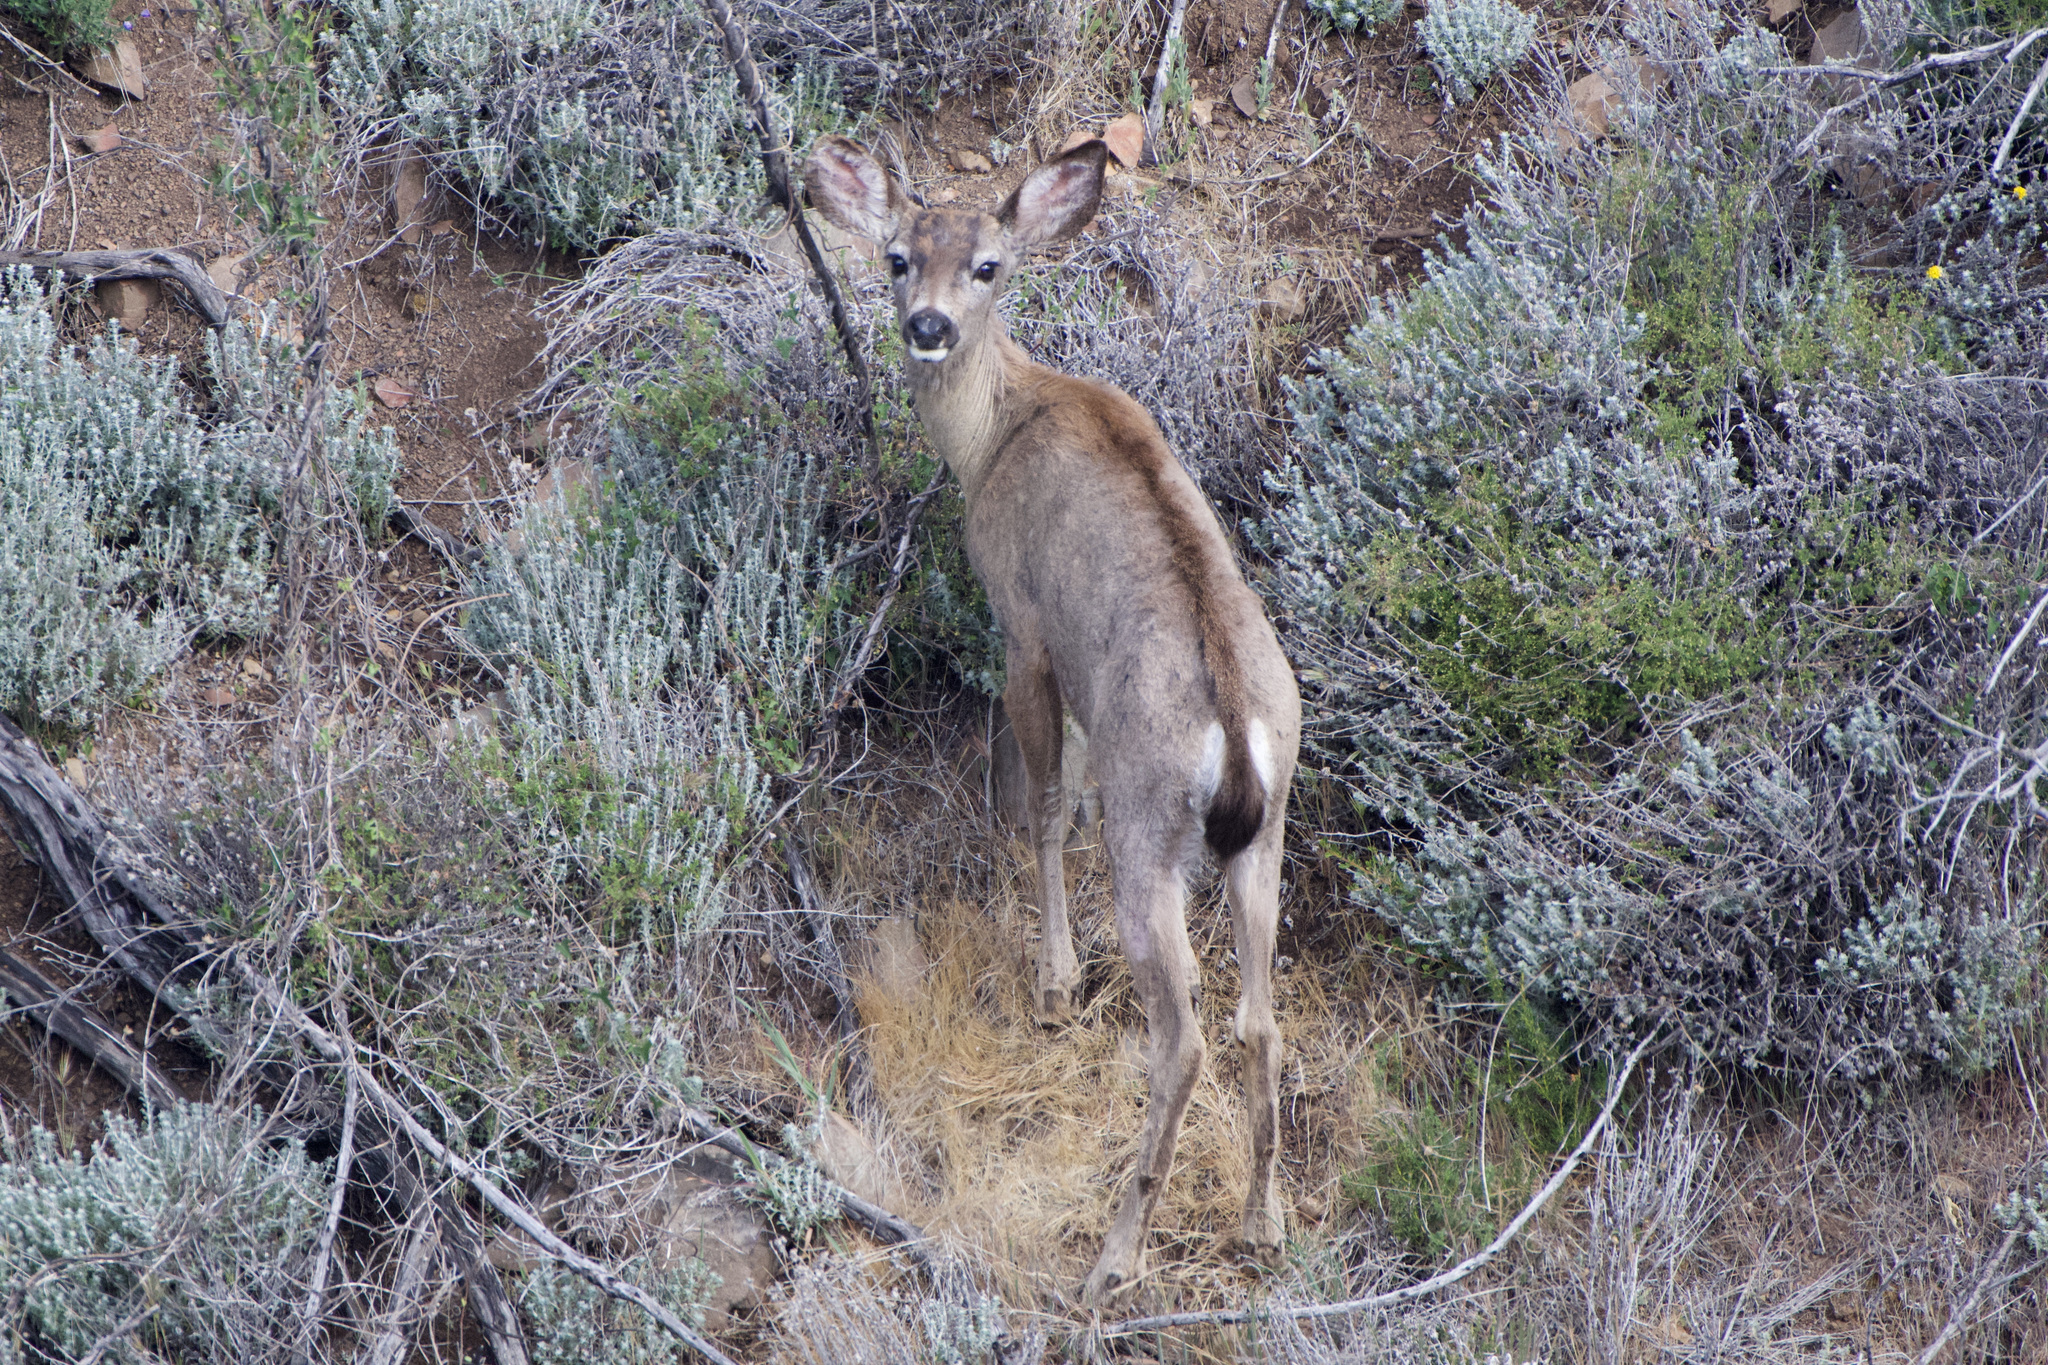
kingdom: Animalia
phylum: Chordata
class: Mammalia
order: Artiodactyla
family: Cervidae
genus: Odocoileus
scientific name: Odocoileus hemionus
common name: Mule deer
